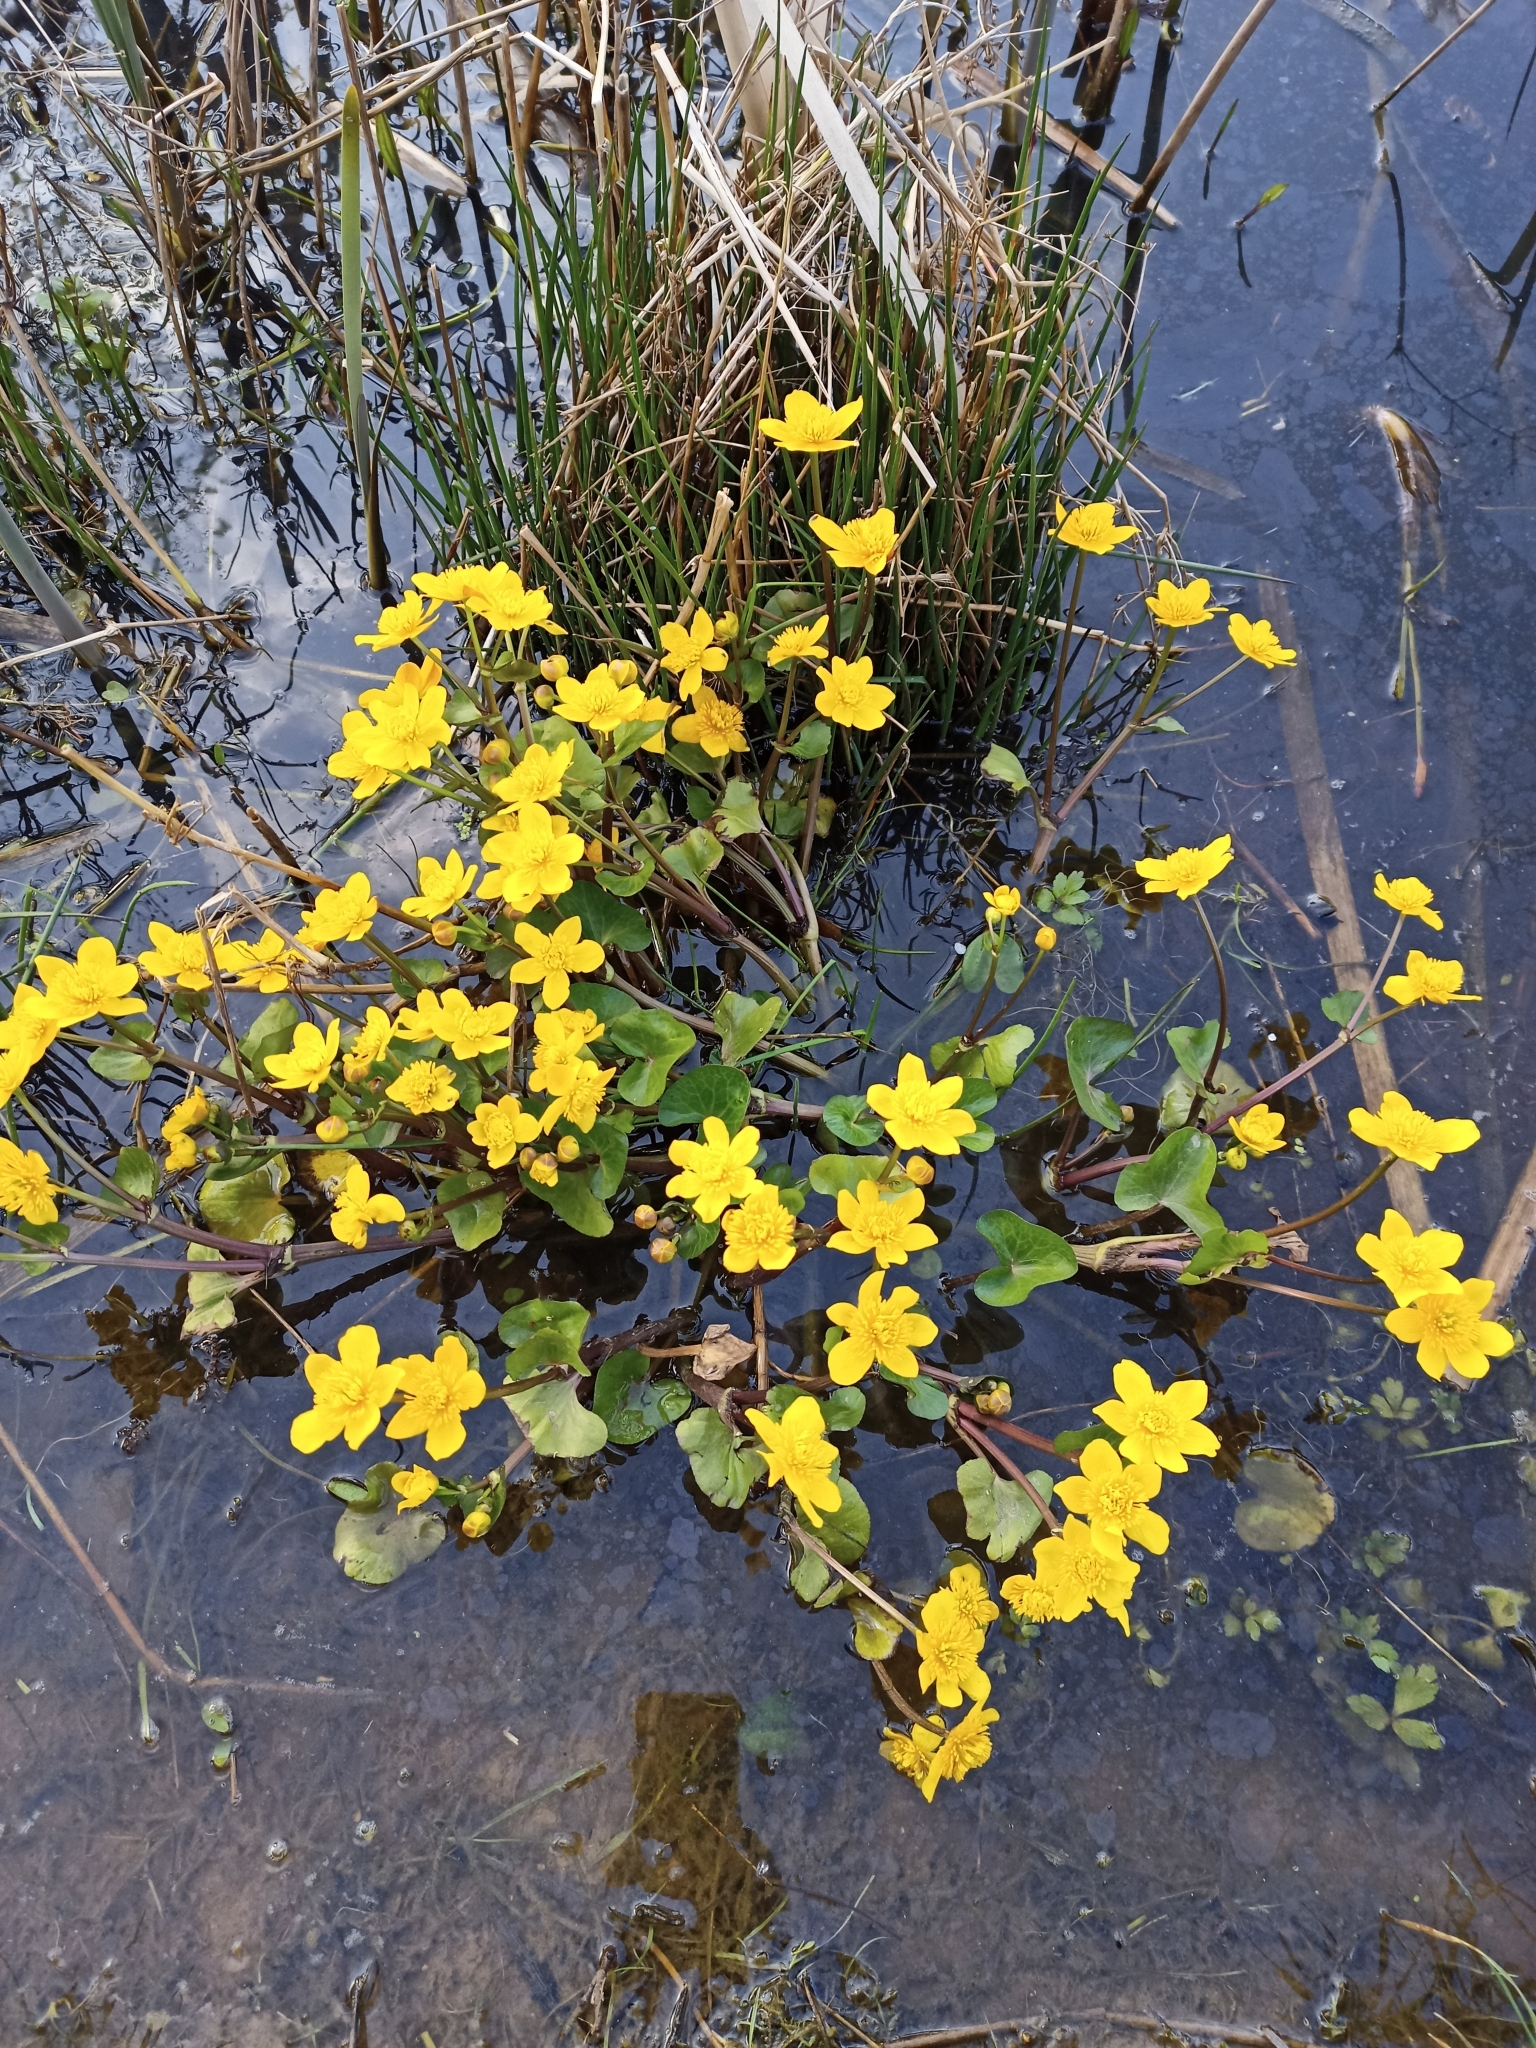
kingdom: Plantae
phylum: Tracheophyta
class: Magnoliopsida
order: Ranunculales
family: Ranunculaceae
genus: Caltha
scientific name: Caltha palustris
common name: Marsh marigold
